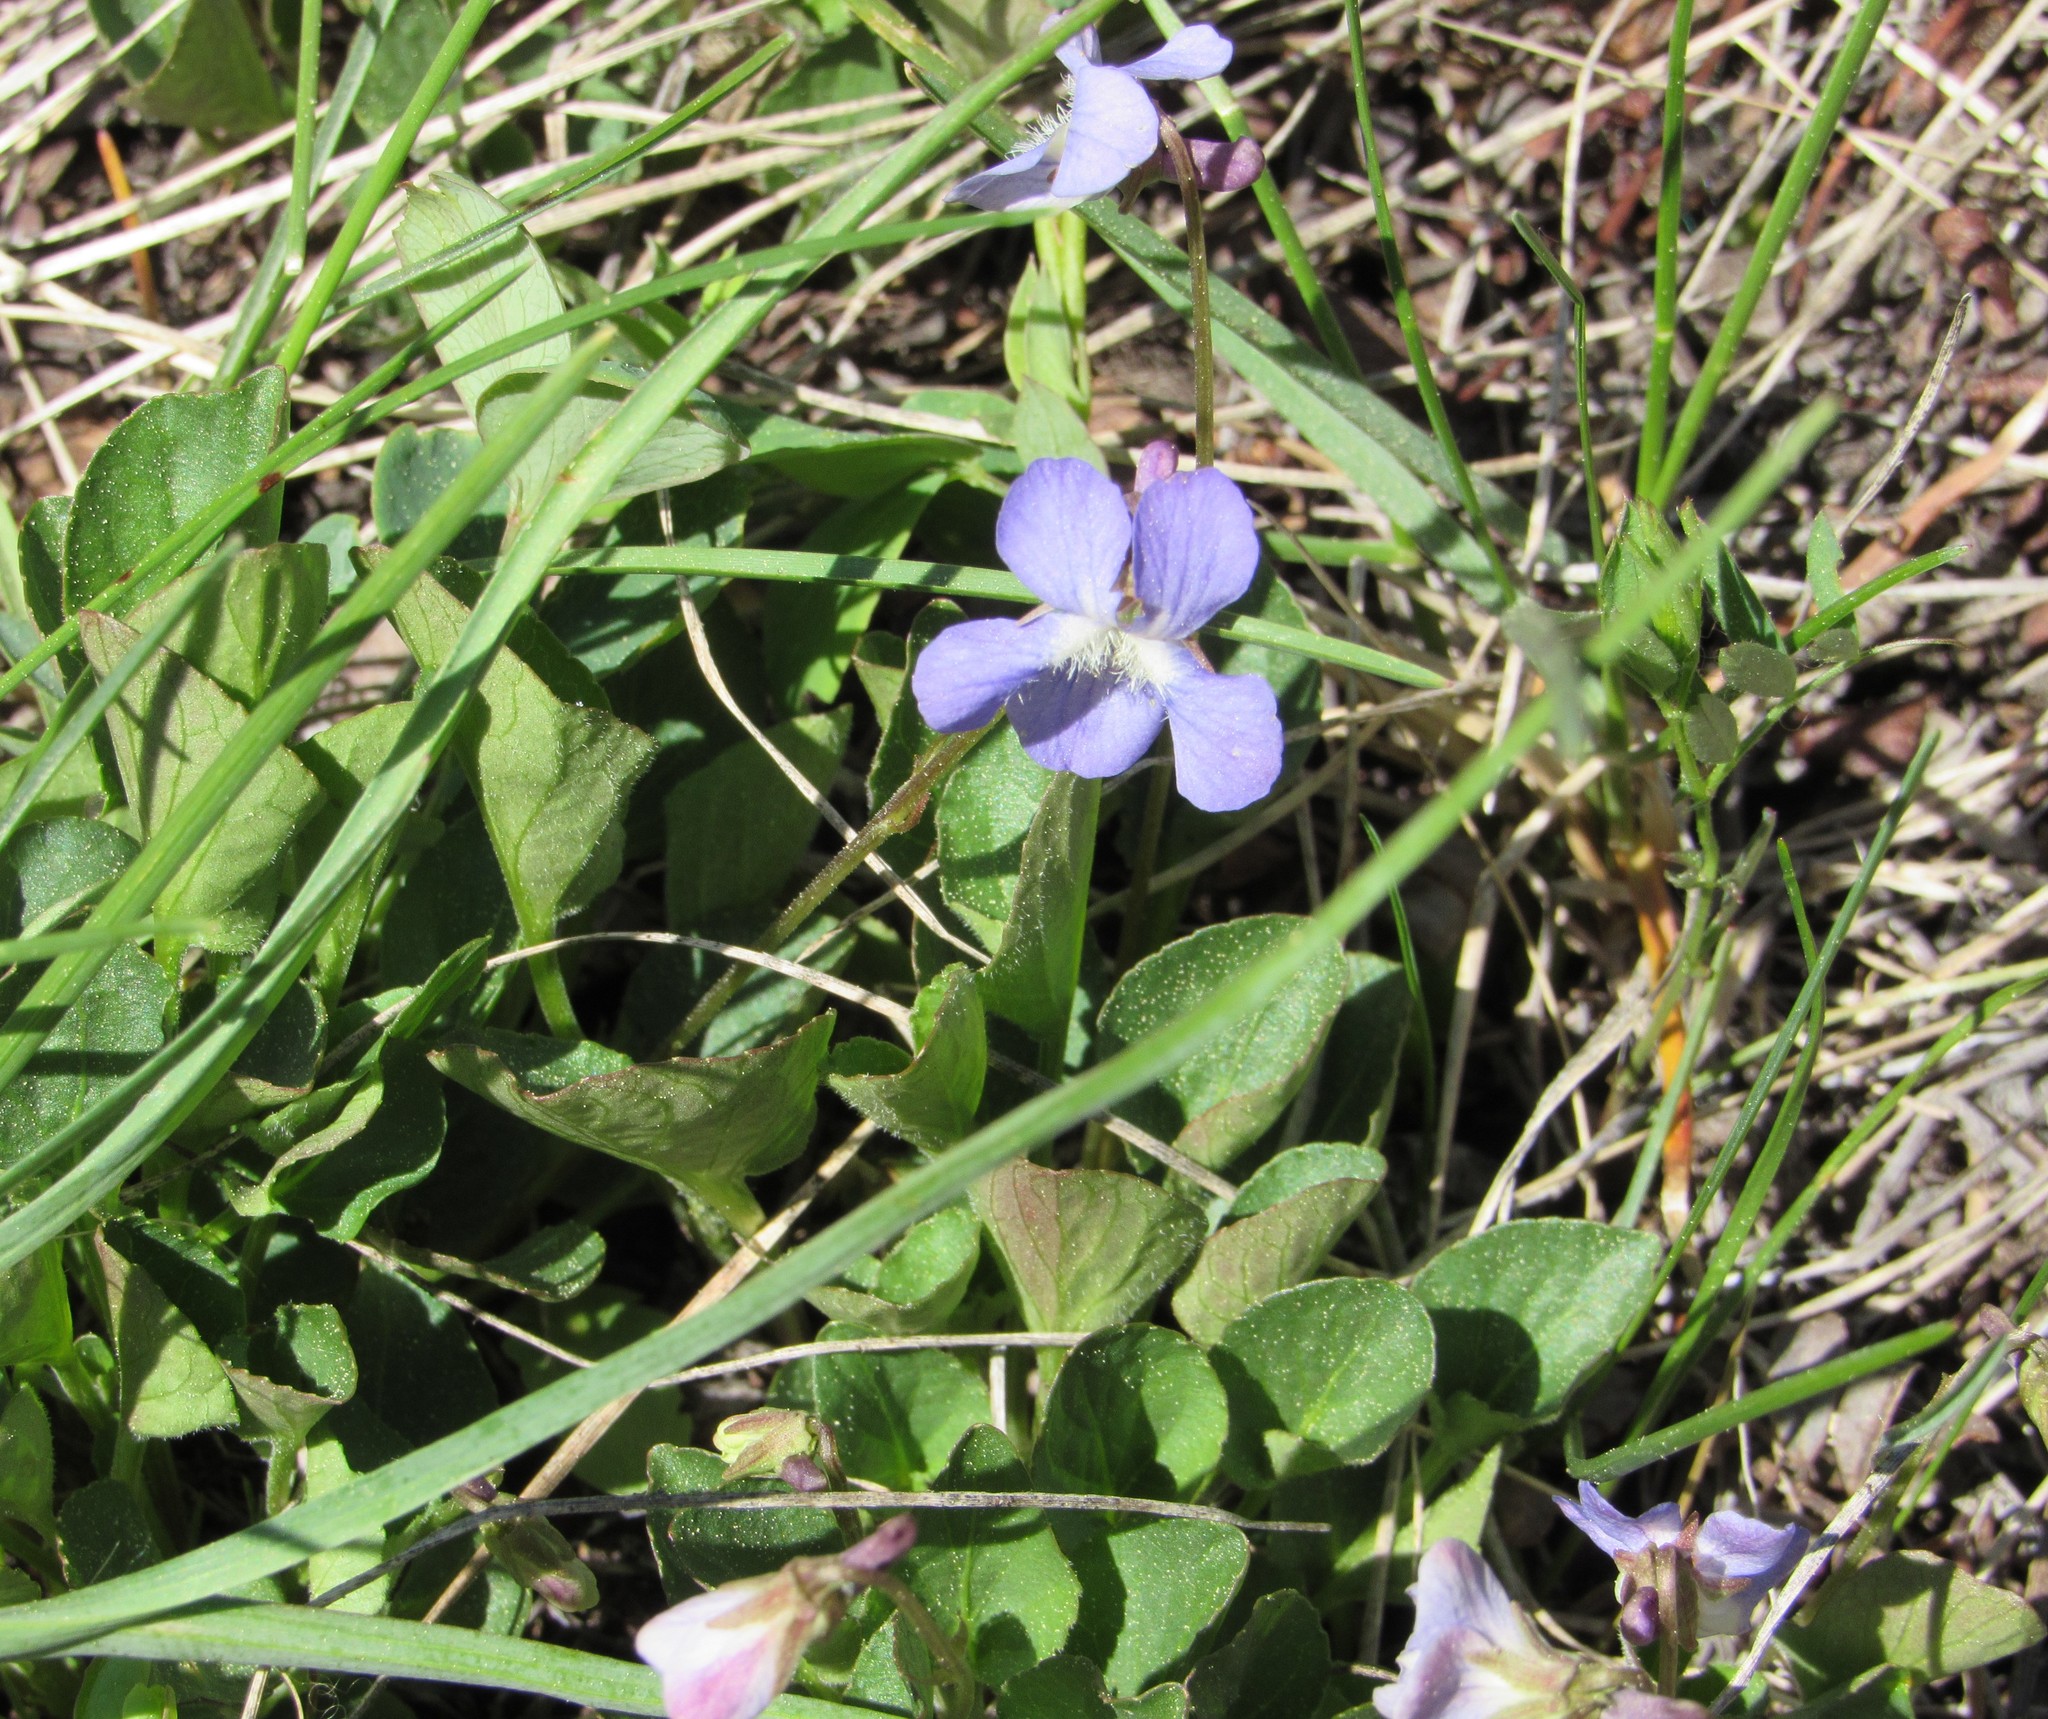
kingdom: Plantae
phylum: Tracheophyta
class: Magnoliopsida
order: Malpighiales
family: Violaceae
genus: Viola
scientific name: Viola adunca
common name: Sand violet
